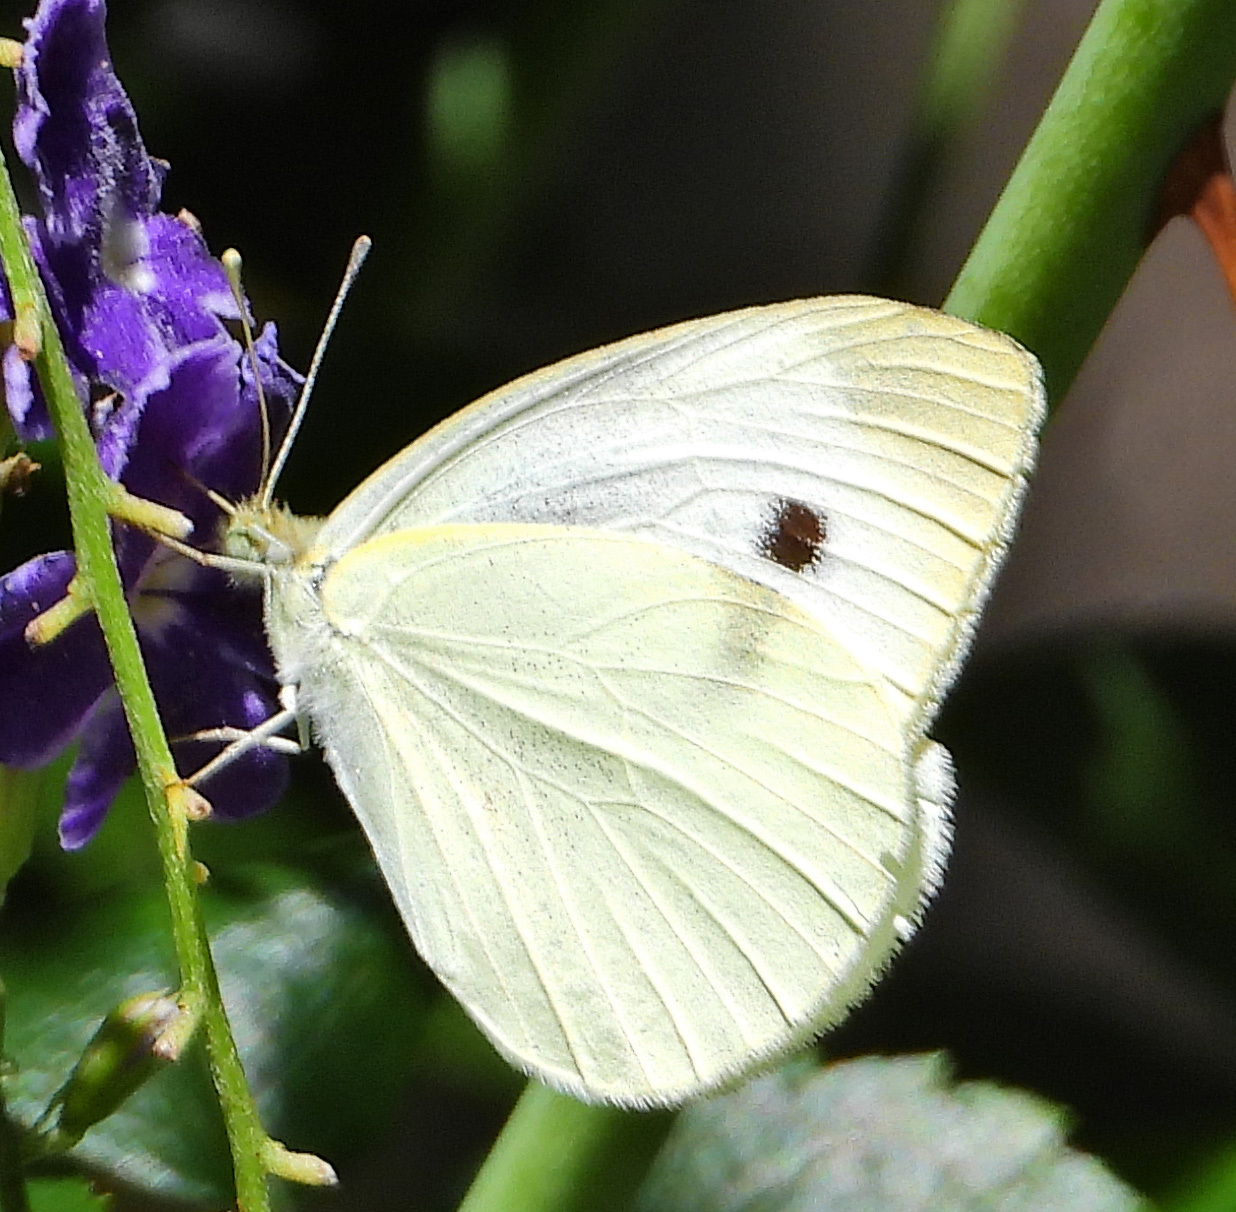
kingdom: Animalia
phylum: Arthropoda
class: Insecta
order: Lepidoptera
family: Pieridae
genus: Pieris
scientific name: Pieris rapae
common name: Small white
